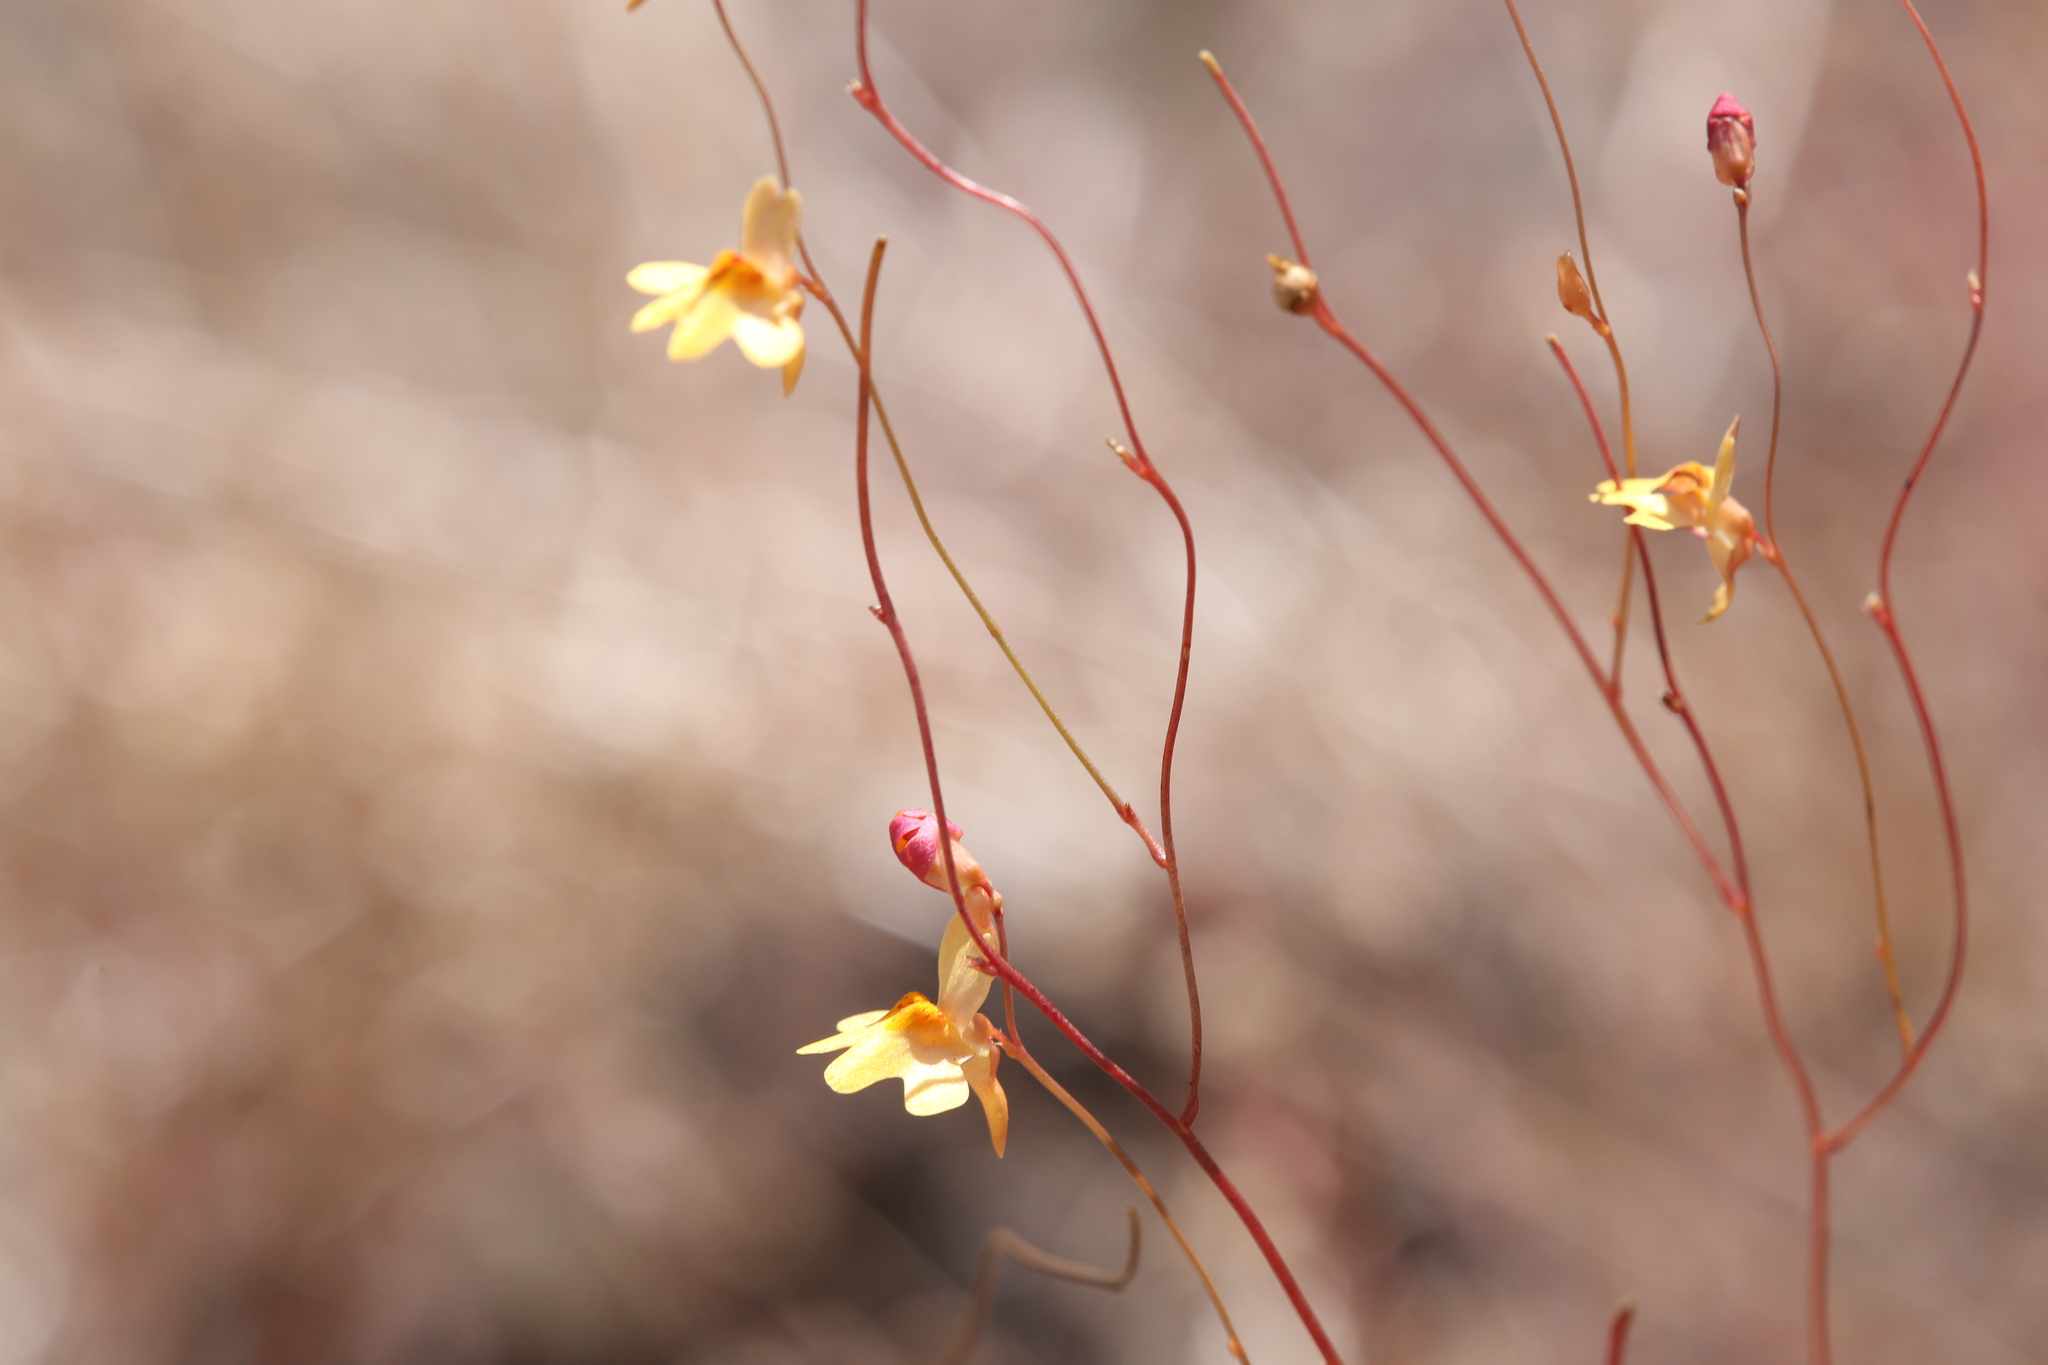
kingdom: Plantae
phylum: Tracheophyta
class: Magnoliopsida
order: Lamiales
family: Lentibulariaceae
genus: Utricularia
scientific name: Utricularia chrysantha
